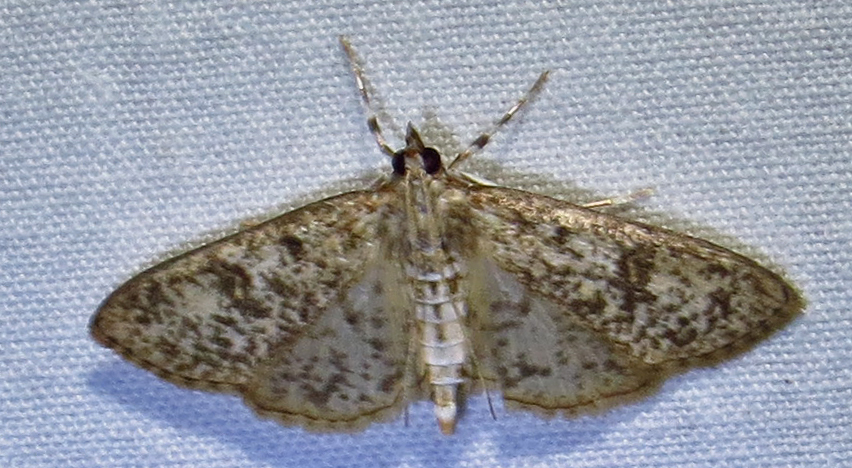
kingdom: Animalia
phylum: Arthropoda
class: Insecta
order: Lepidoptera
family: Crambidae
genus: Palpita
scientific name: Palpita magniferalis
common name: Splendid palpita moth
